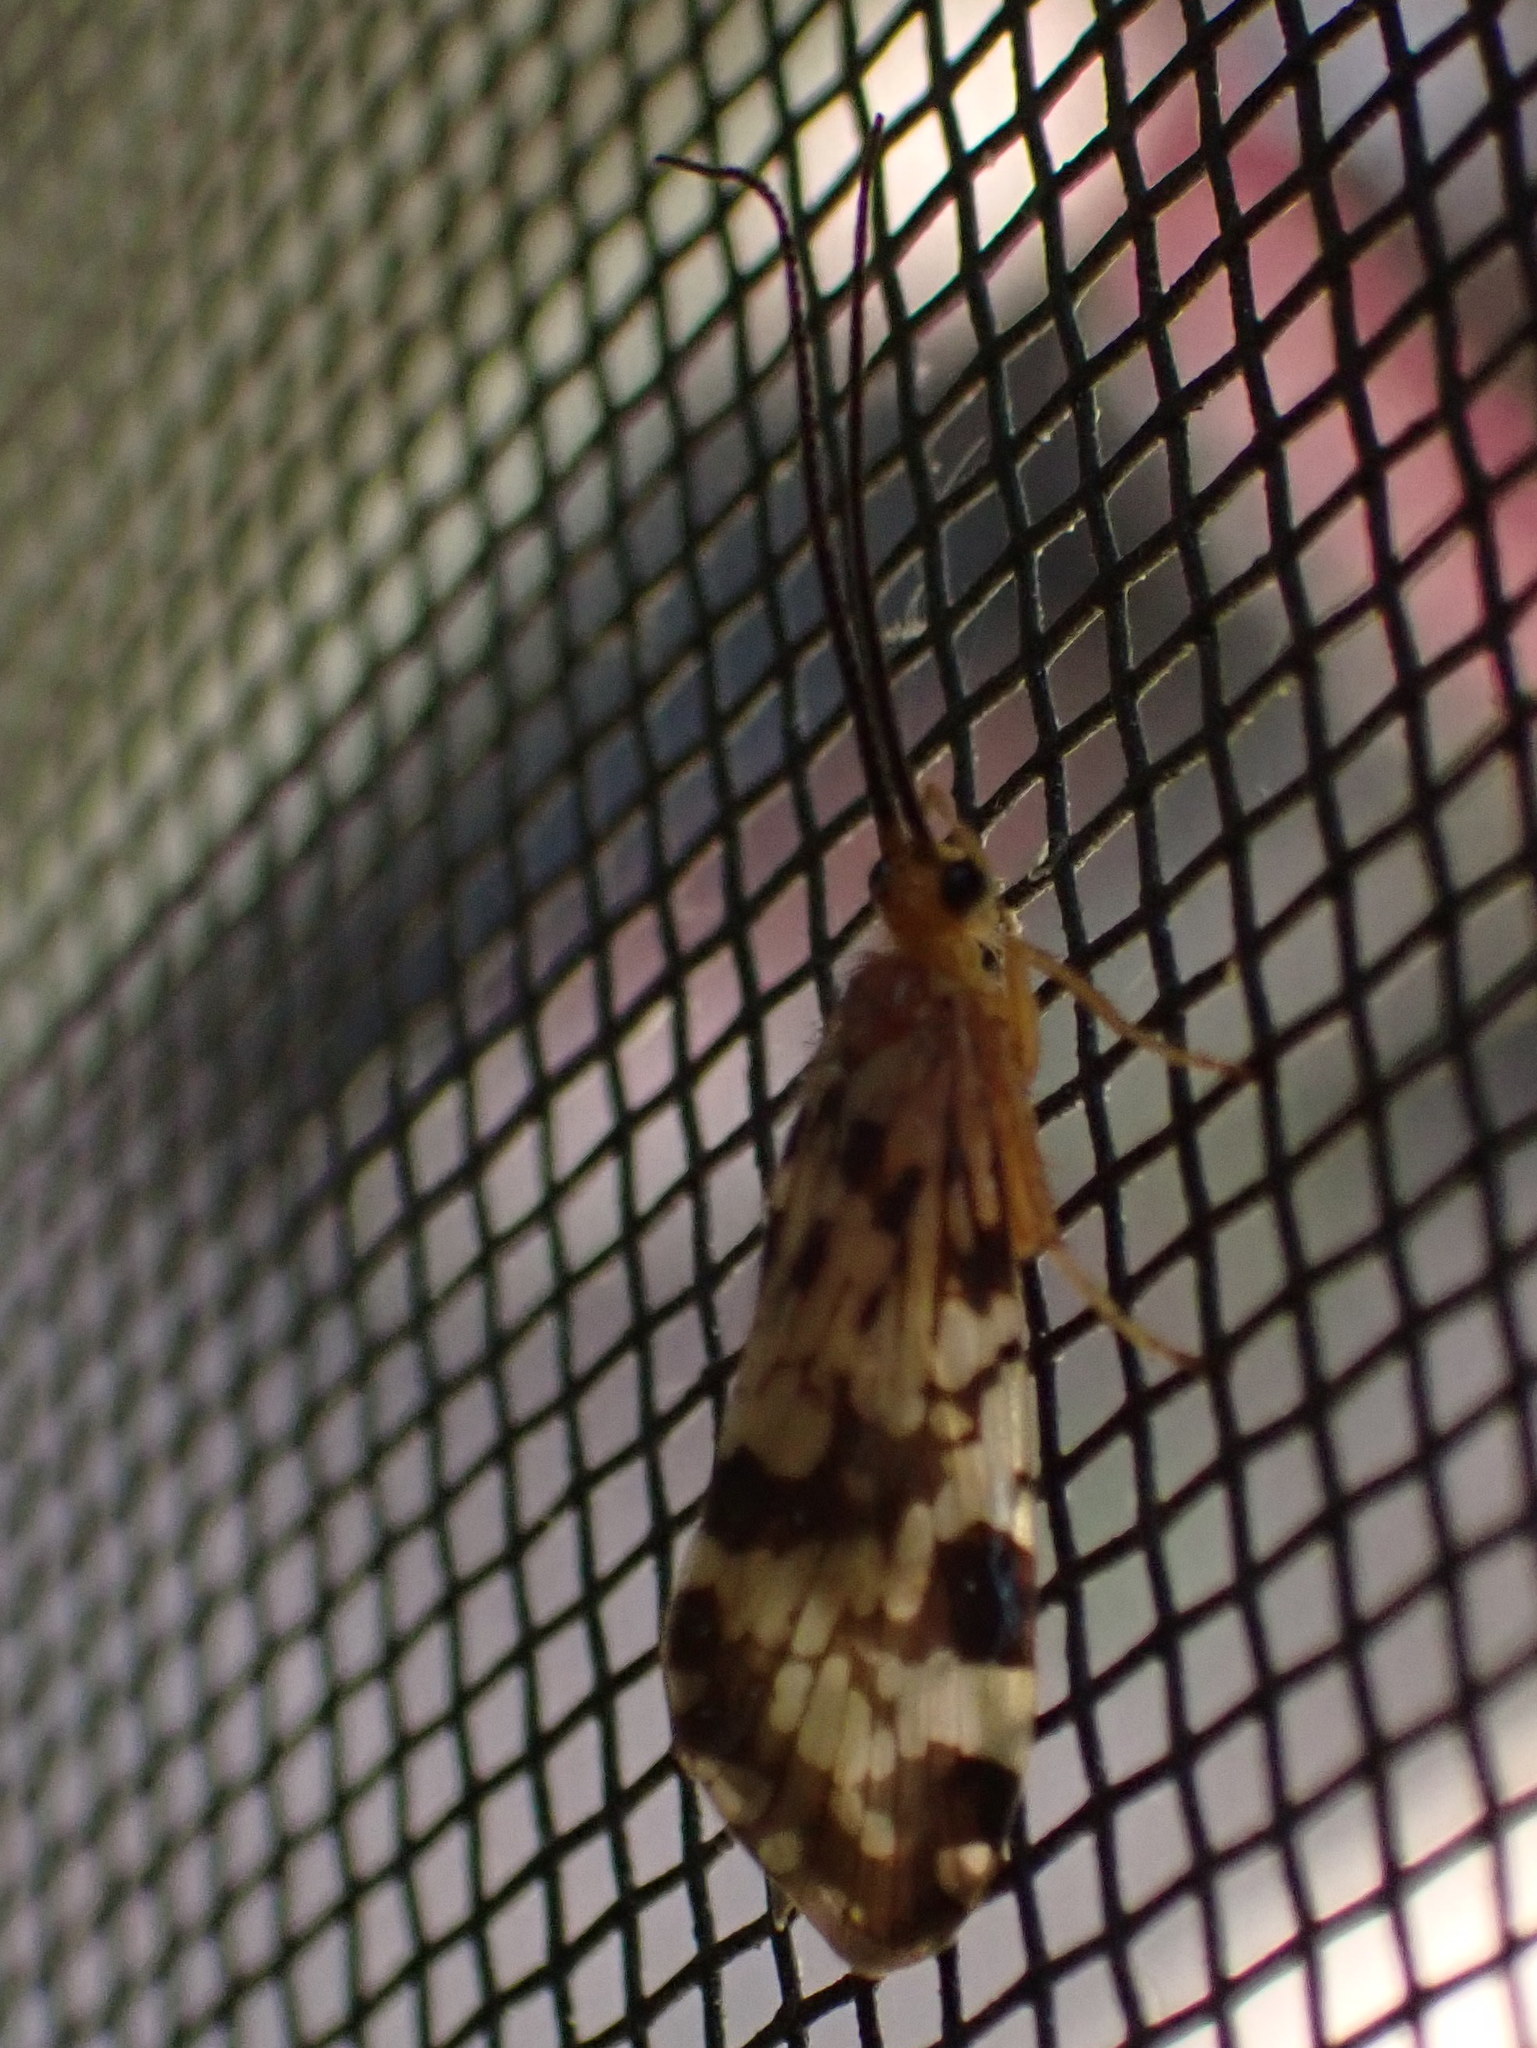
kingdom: Animalia
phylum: Arthropoda
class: Insecta
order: Trichoptera
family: Phryganeidae
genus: Banksiola
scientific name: Banksiola dossuaria
